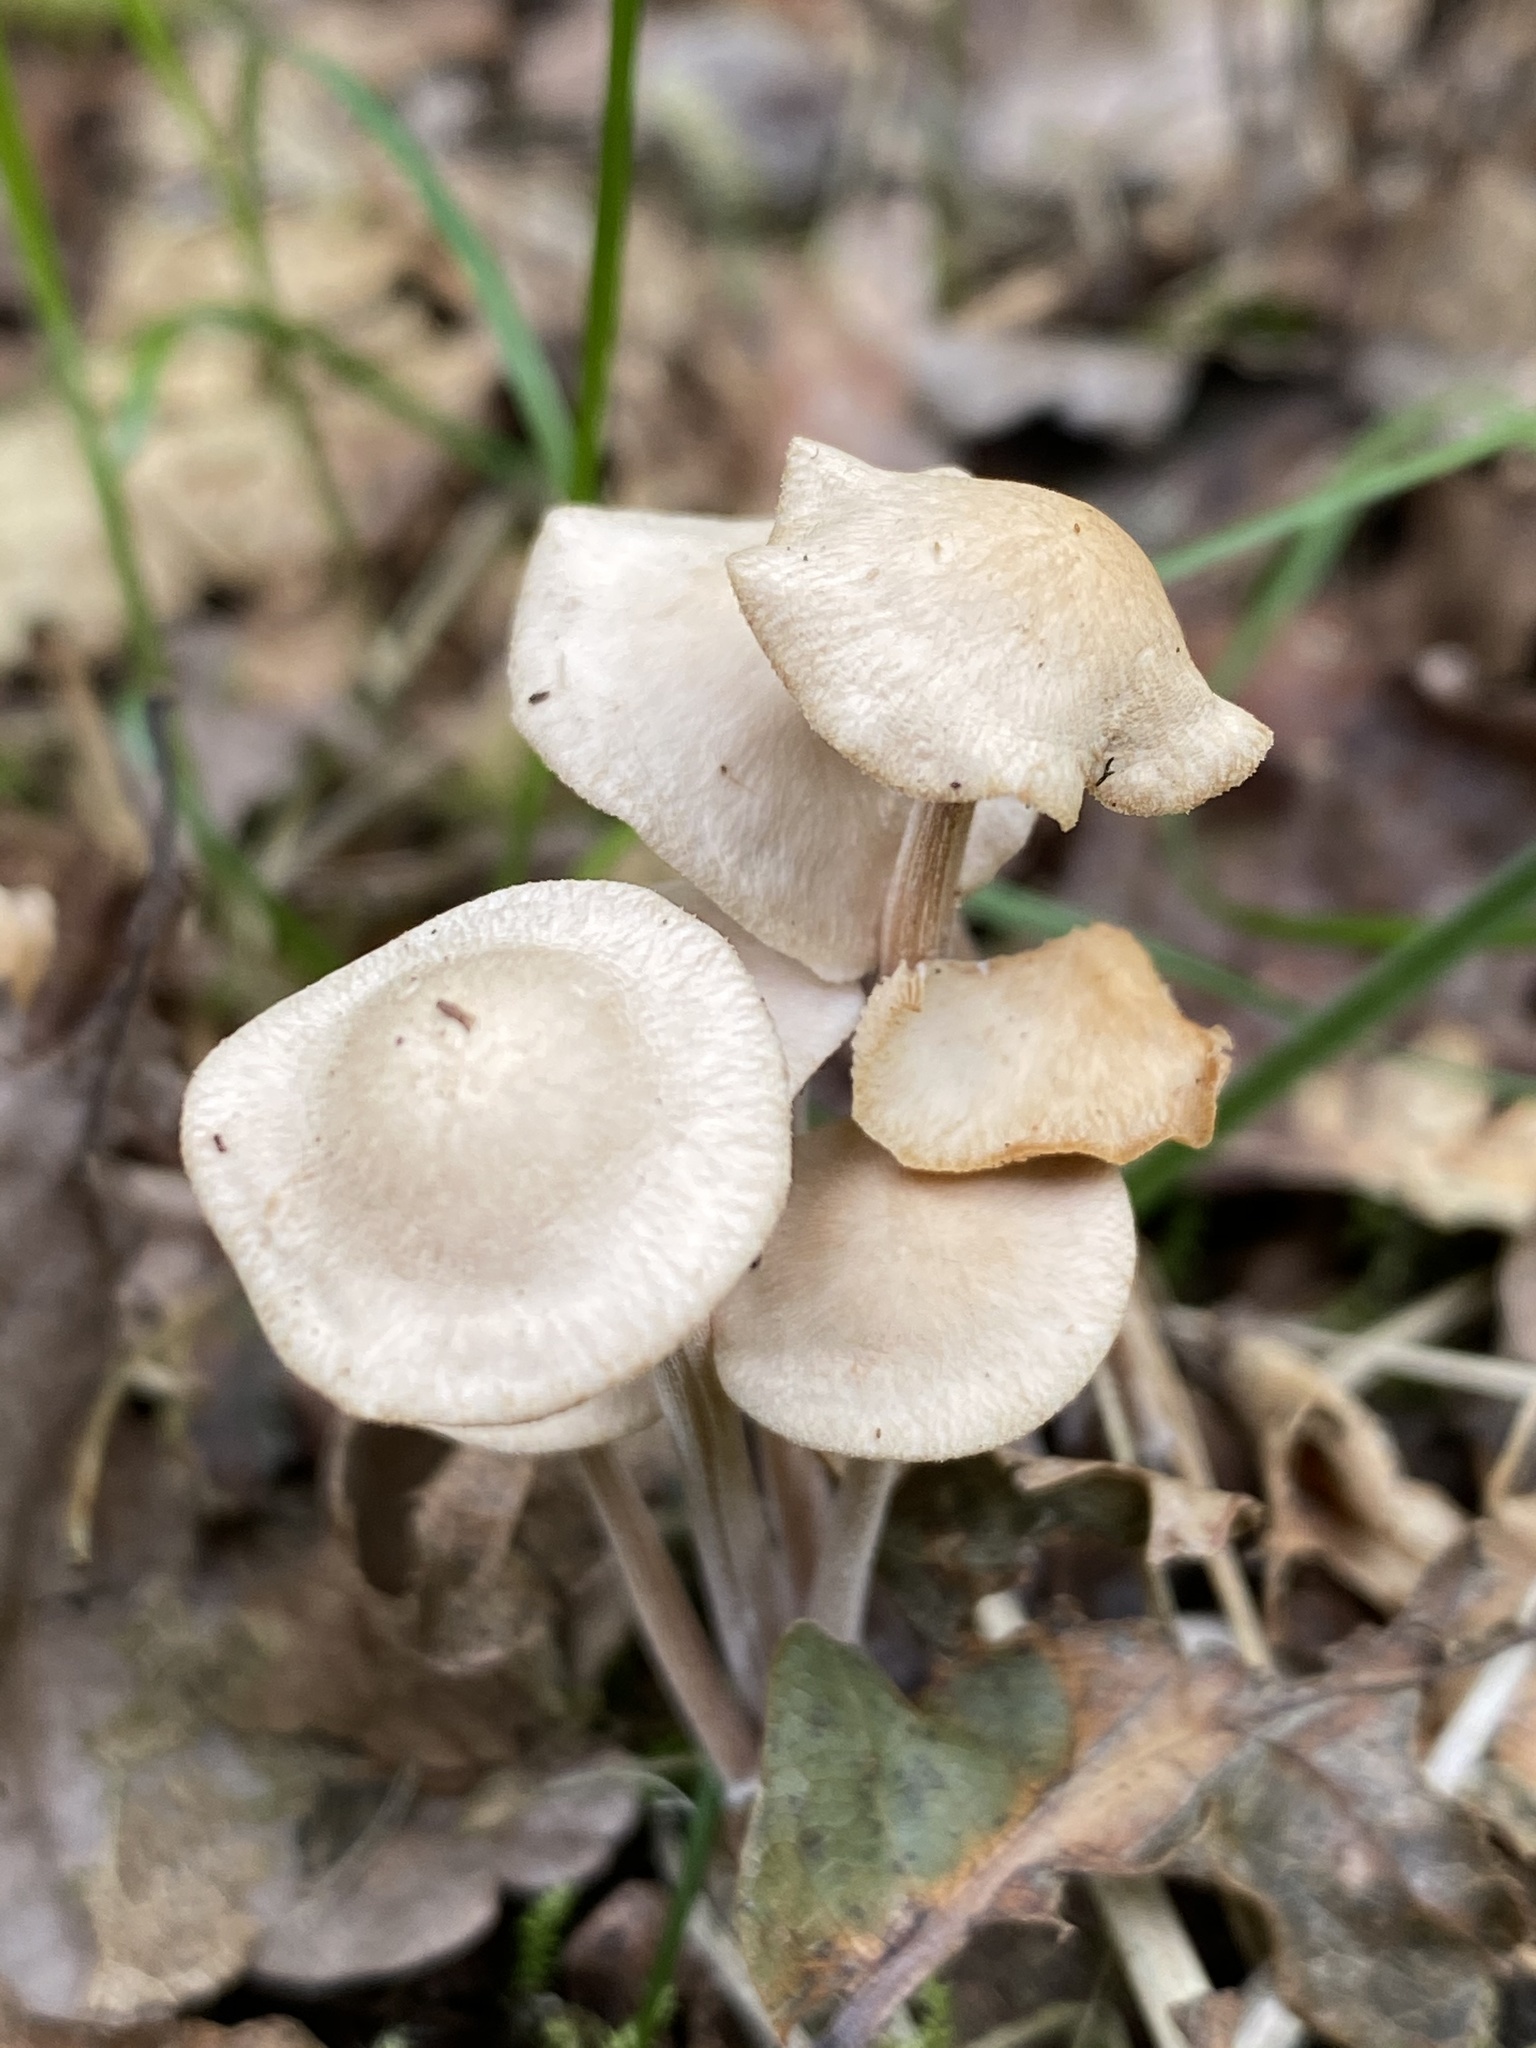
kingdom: Fungi
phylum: Basidiomycota
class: Agaricomycetes
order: Agaricales
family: Omphalotaceae
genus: Collybiopsis
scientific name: Collybiopsis confluens
